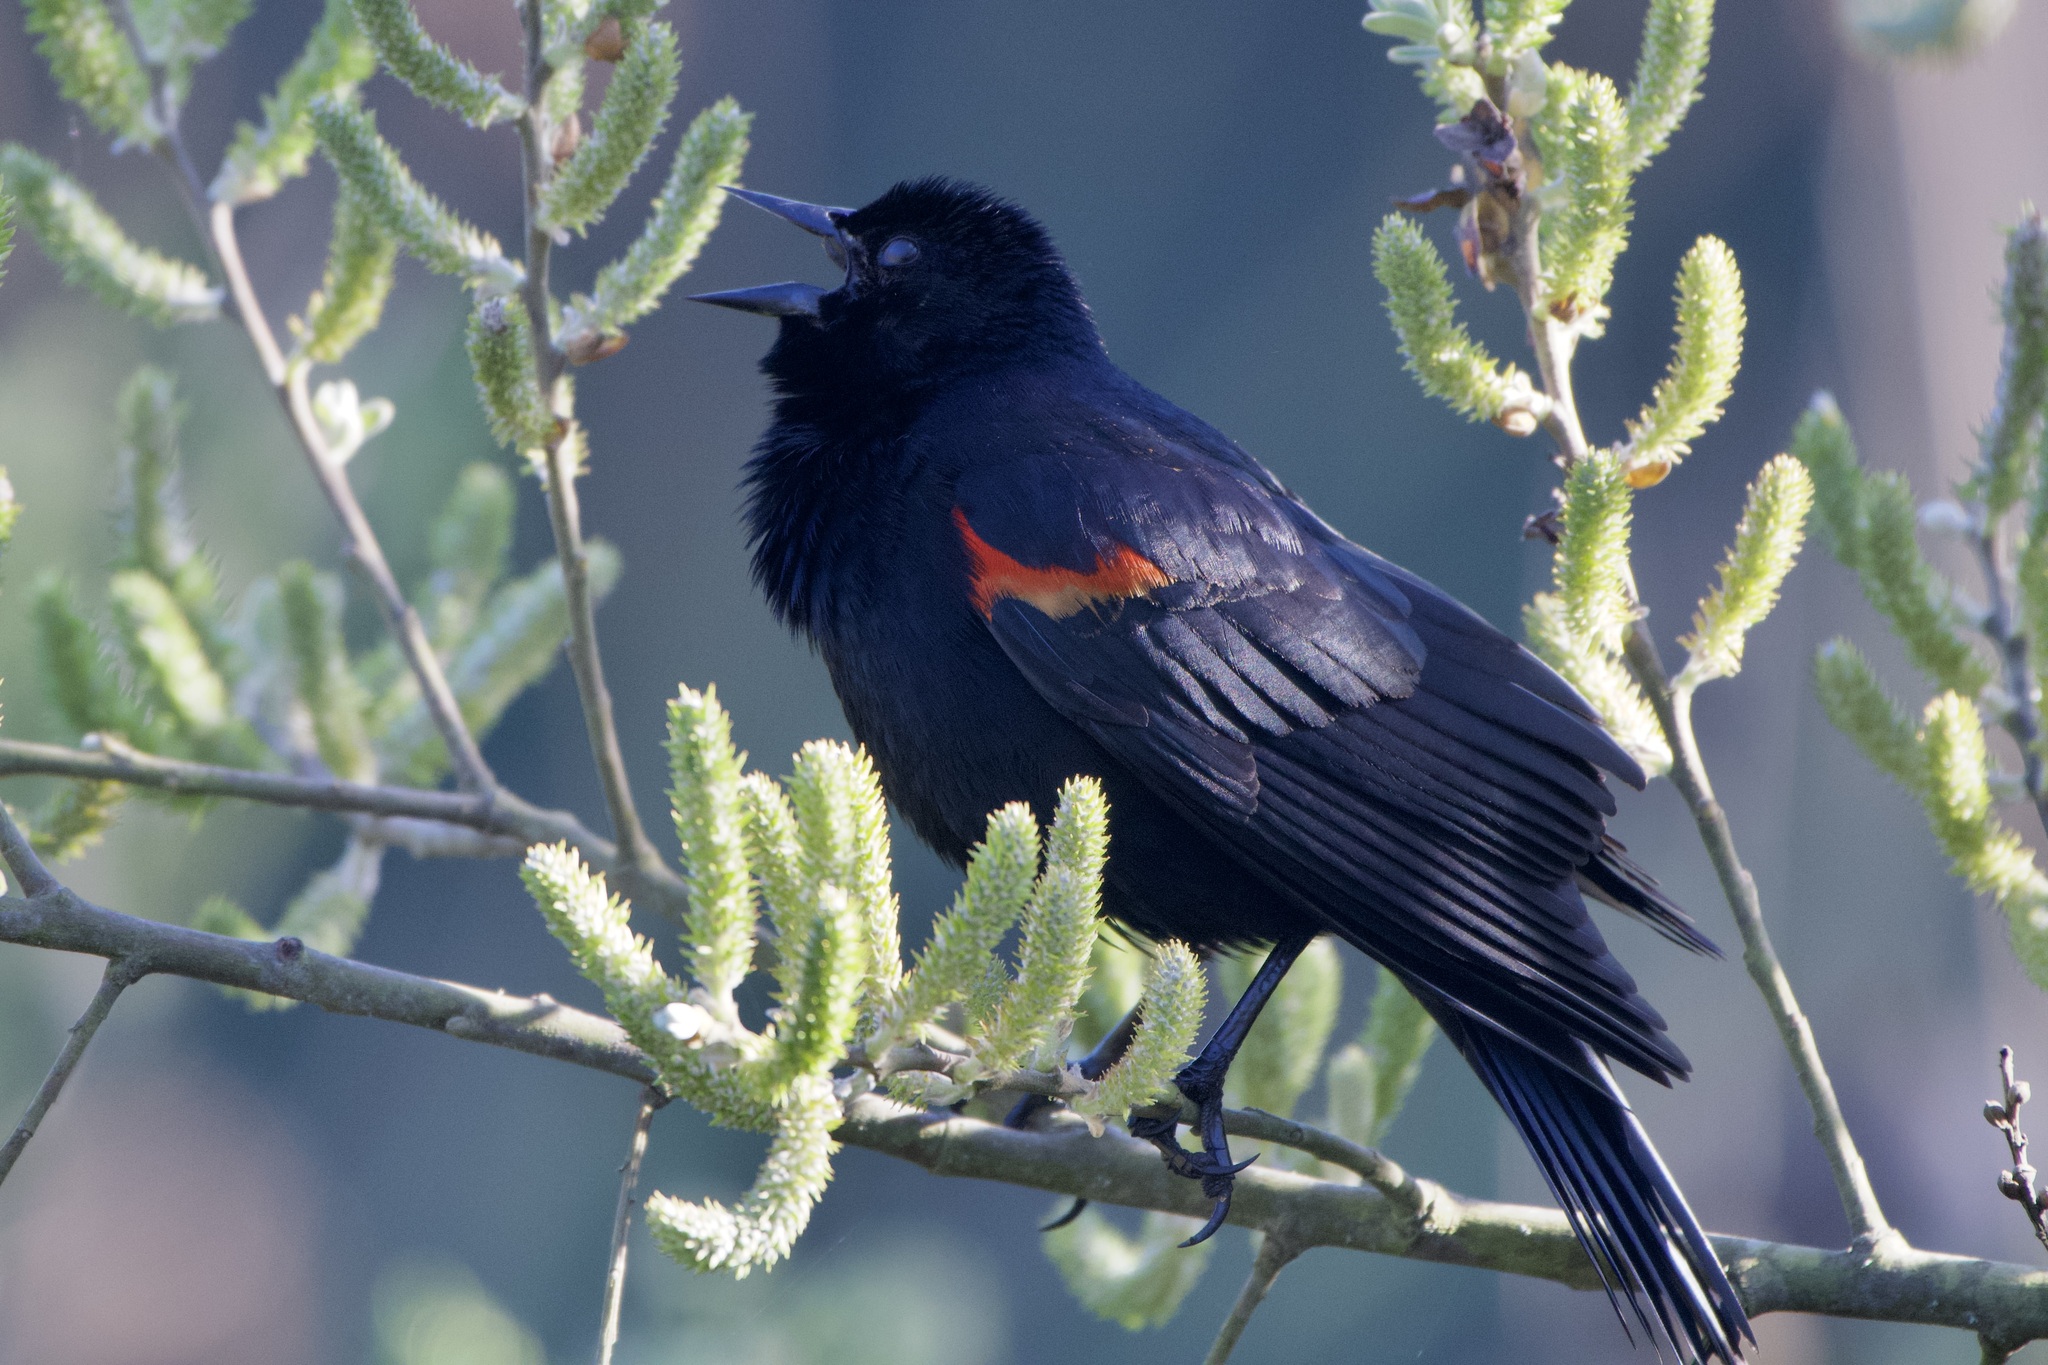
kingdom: Animalia
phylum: Chordata
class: Aves
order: Passeriformes
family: Icteridae
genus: Agelaius
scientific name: Agelaius phoeniceus
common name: Red-winged blackbird
